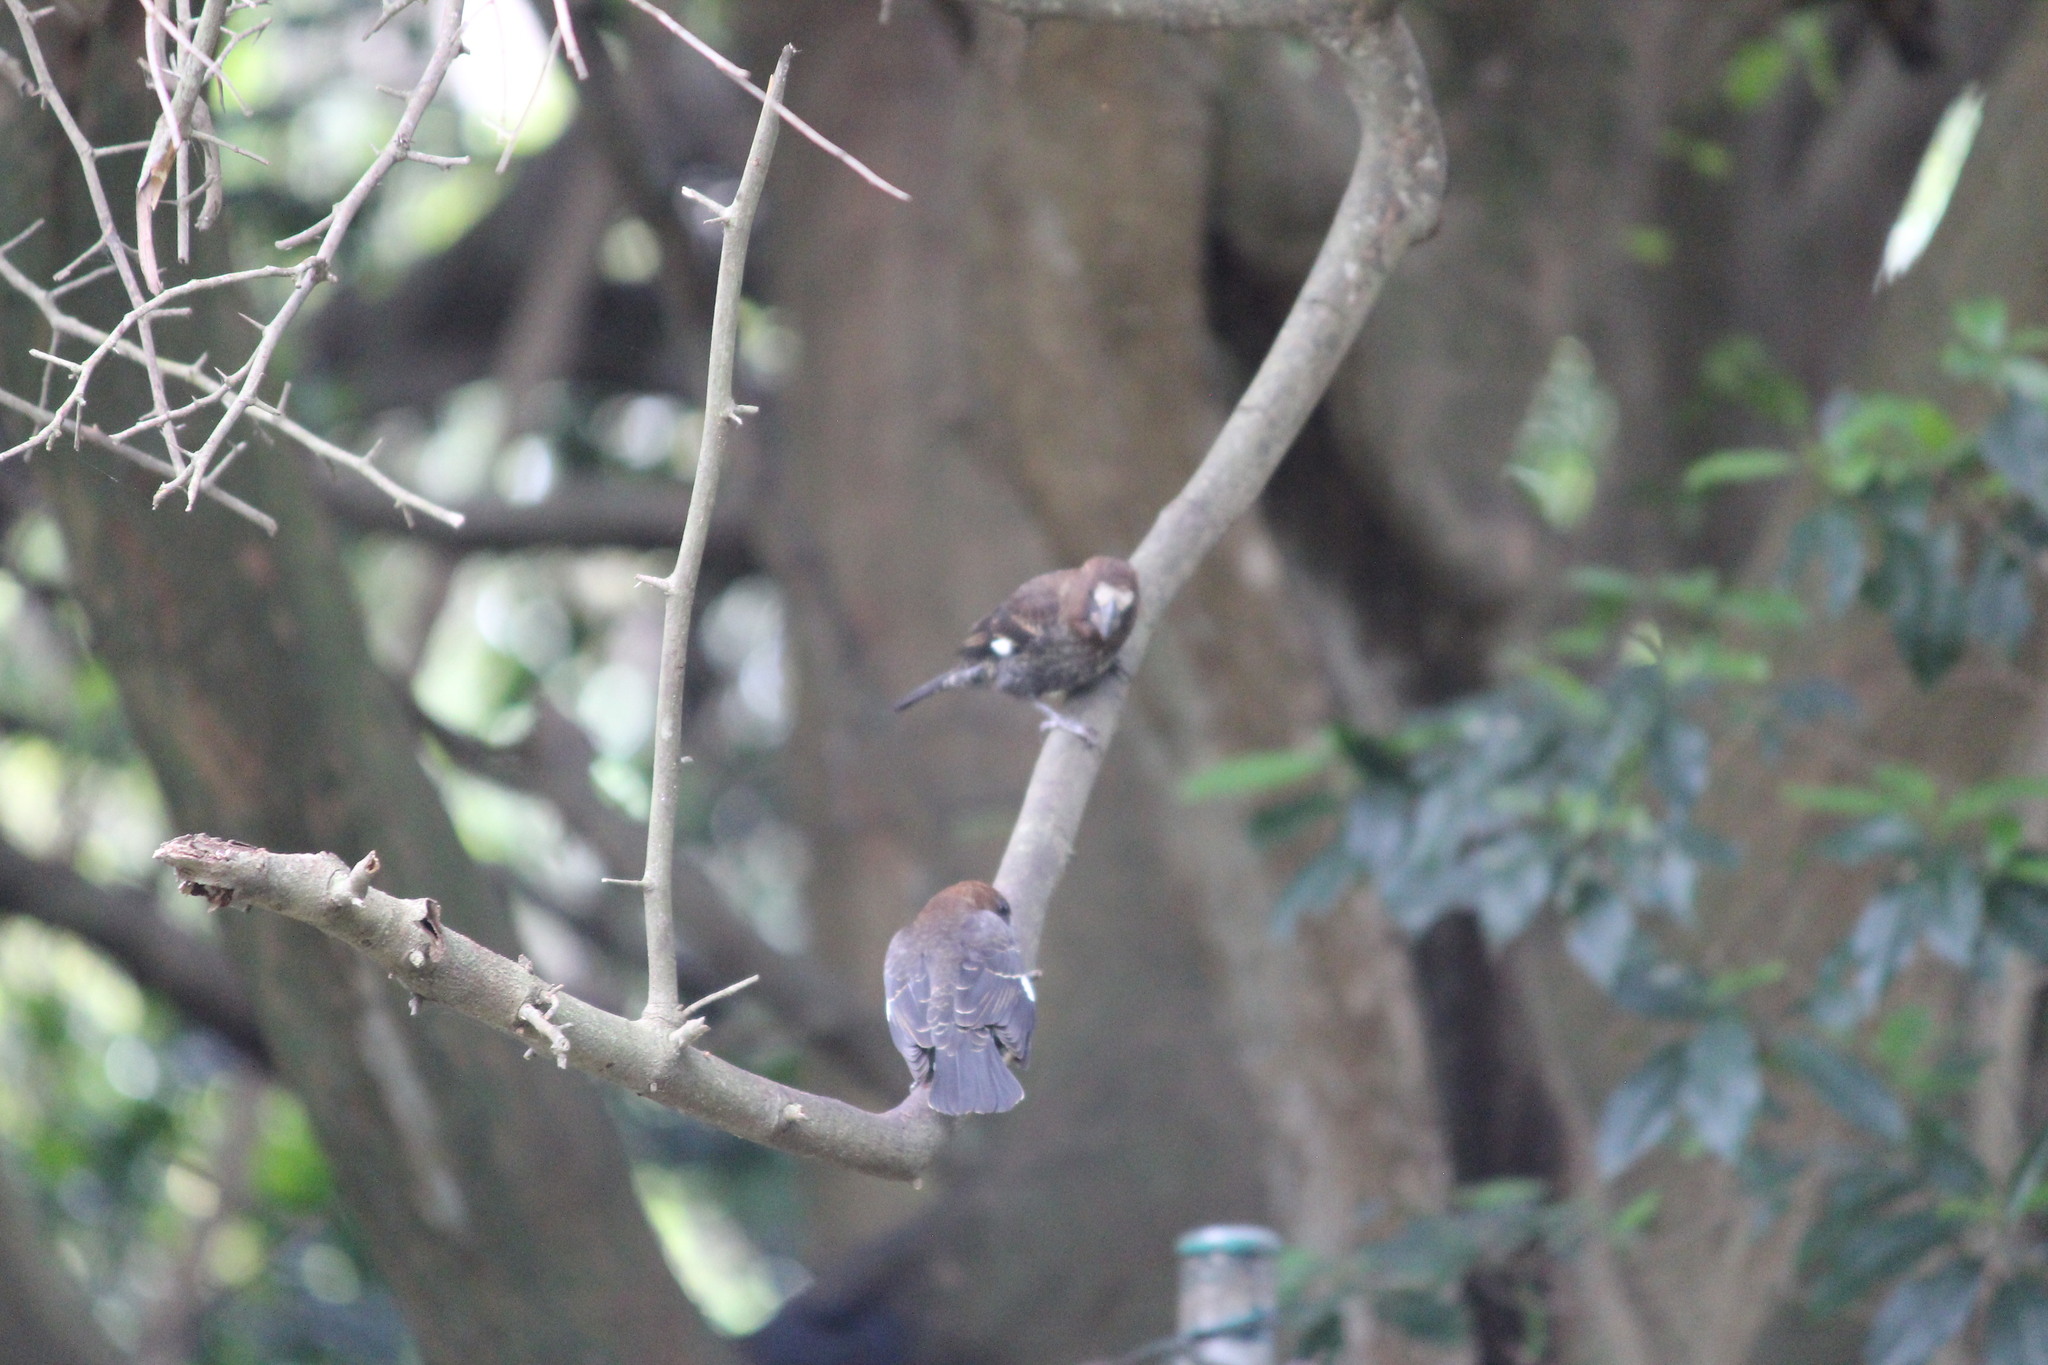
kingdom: Animalia
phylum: Chordata
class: Aves
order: Passeriformes
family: Ploceidae
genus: Amblyospiza
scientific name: Amblyospiza albifrons
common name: Thick-billed weaver
